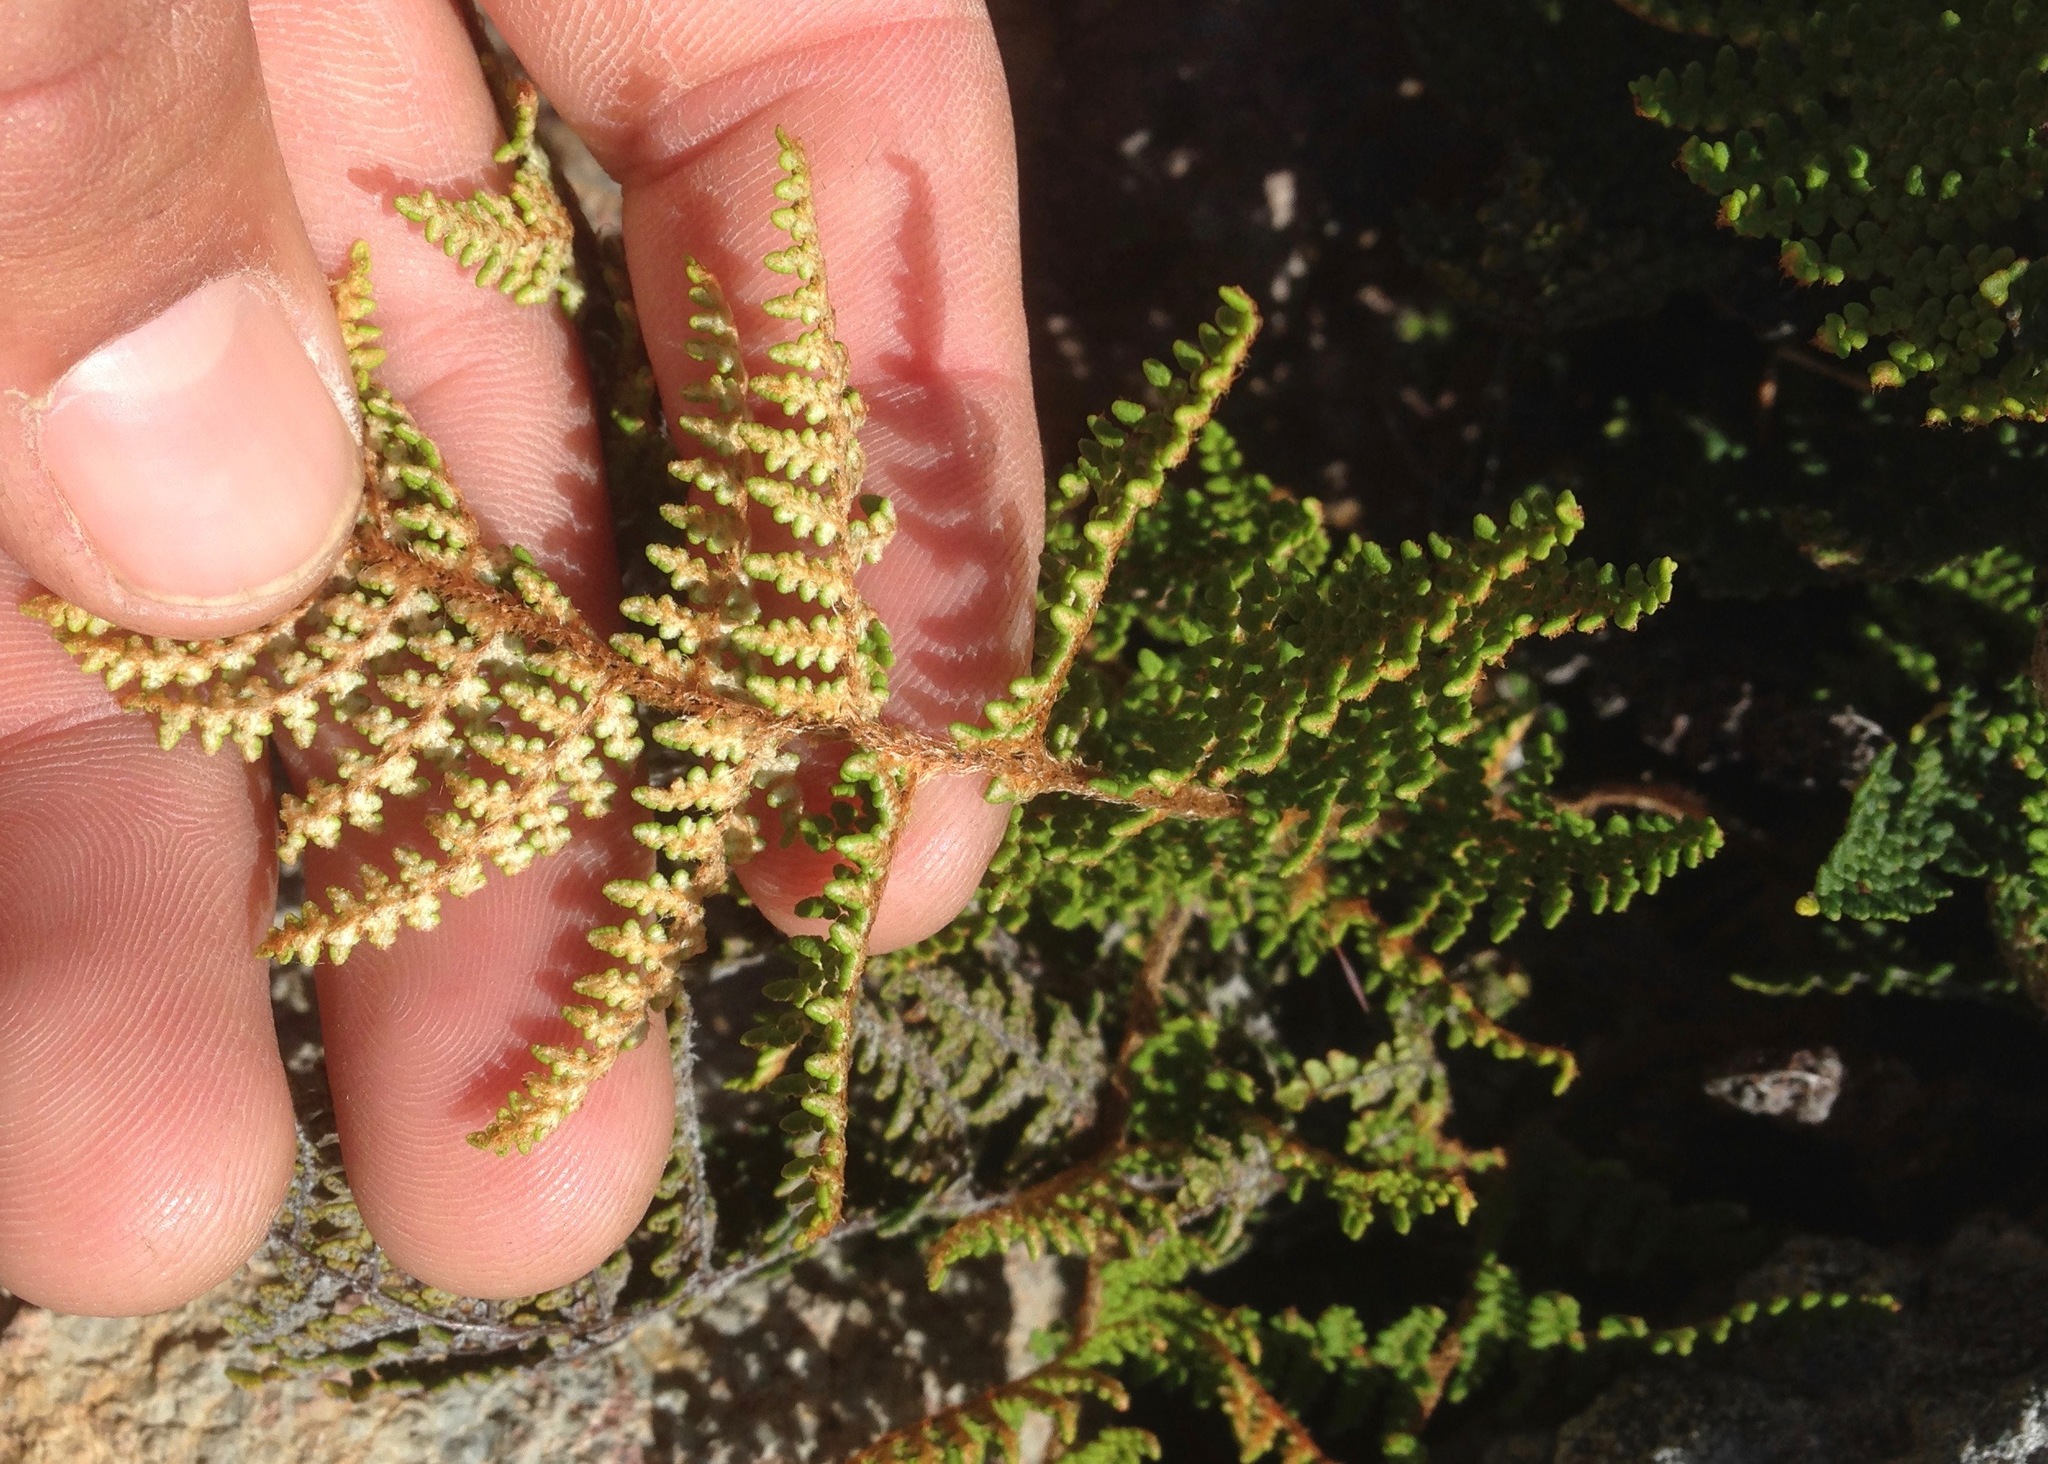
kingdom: Plantae
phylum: Tracheophyta
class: Polypodiopsida
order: Polypodiales
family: Pteridaceae
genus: Myriopteris
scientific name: Myriopteris clevelandii
